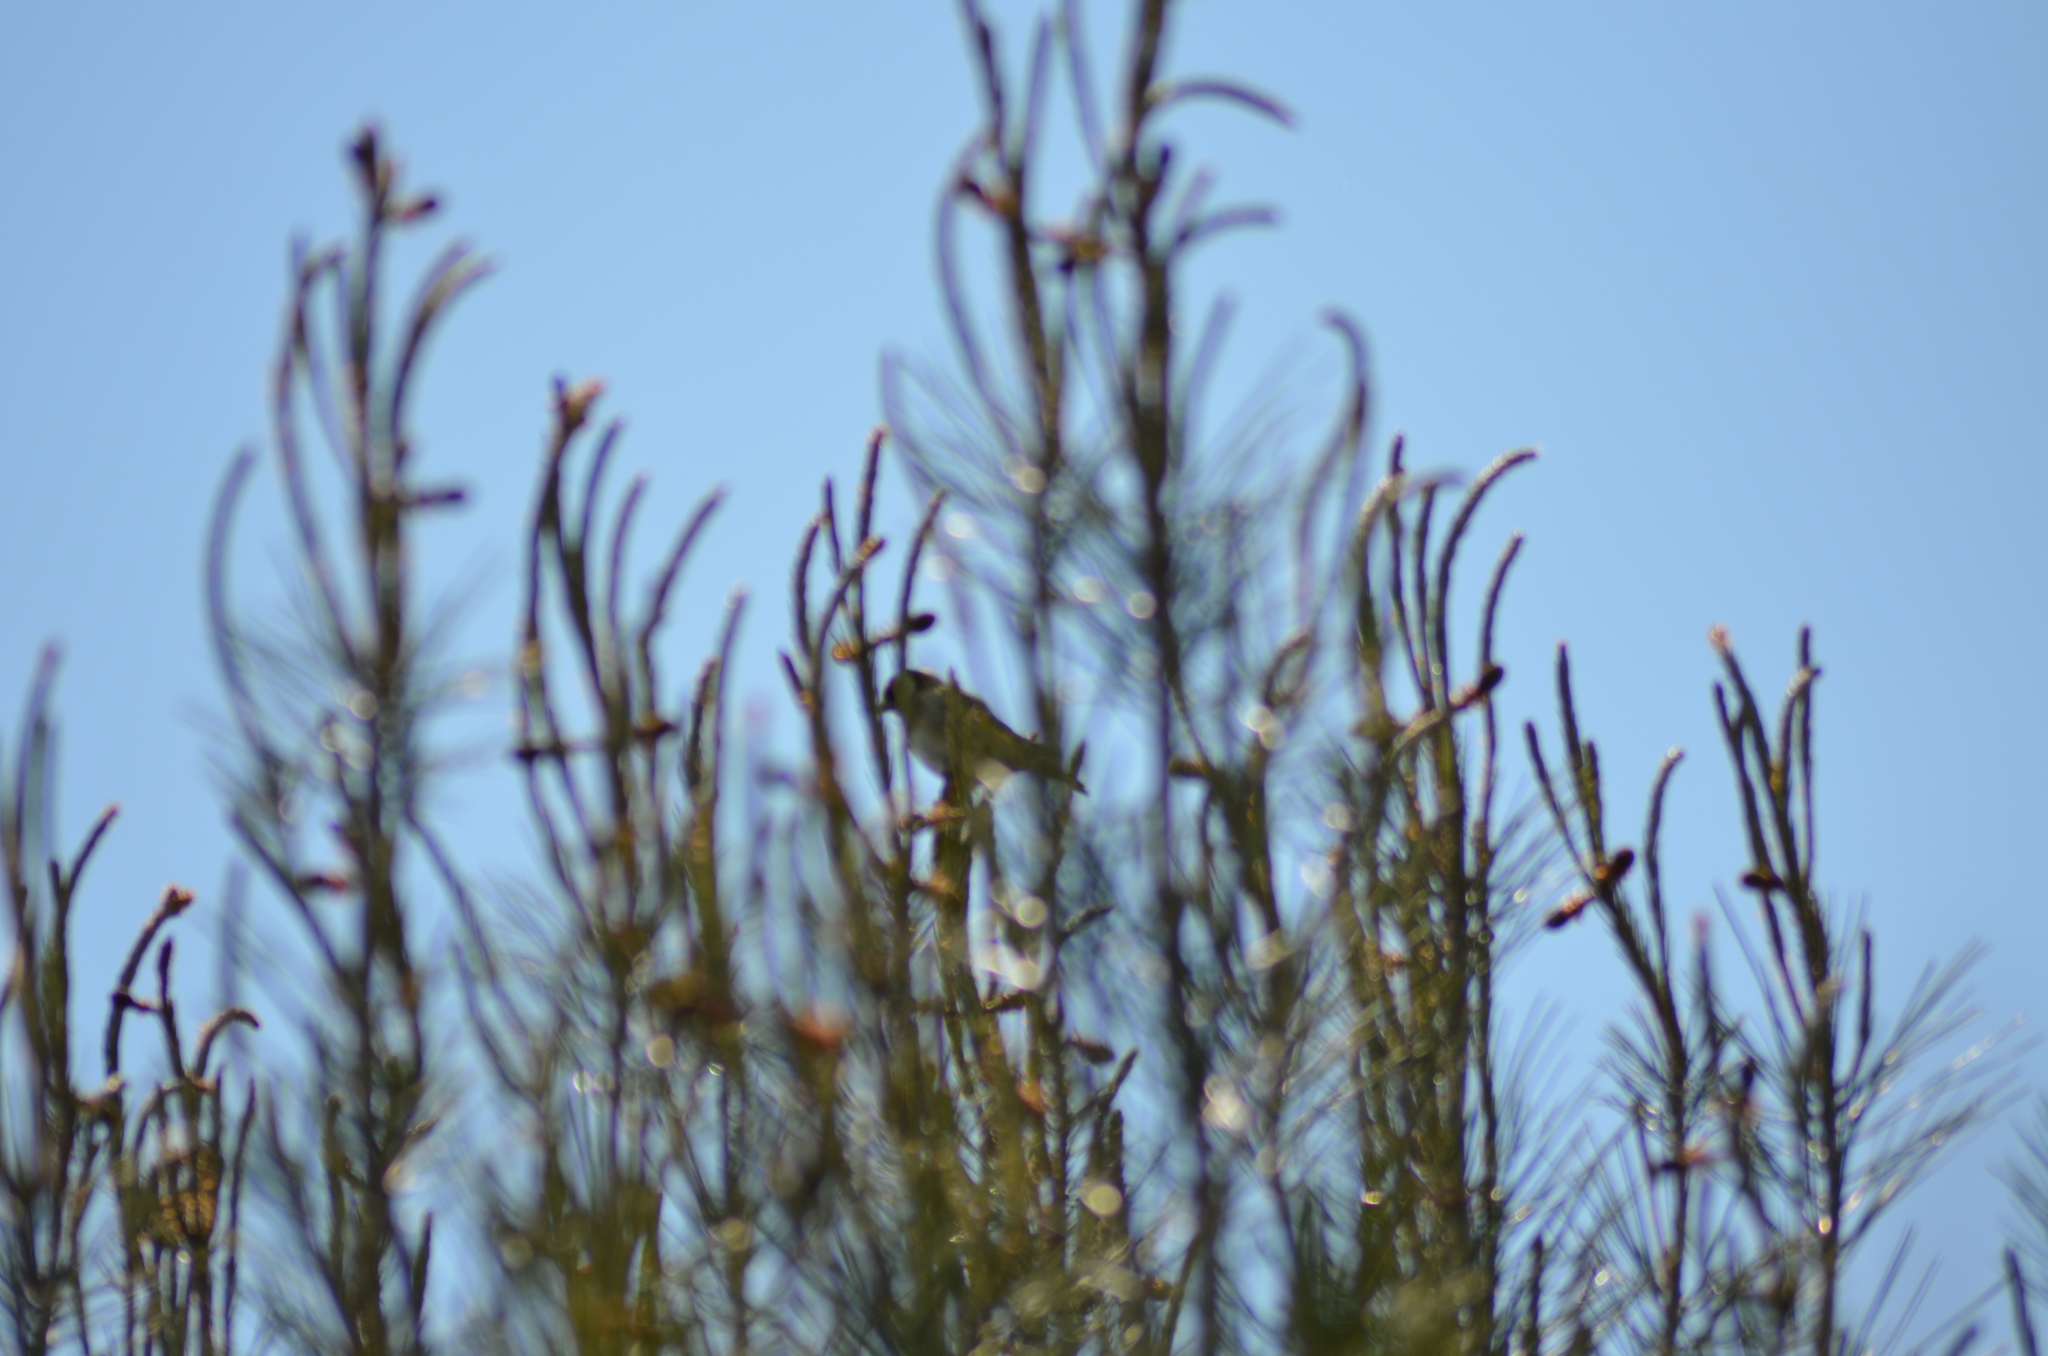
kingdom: Animalia
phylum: Chordata
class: Aves
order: Passeriformes
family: Fringillidae
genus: Carduelis
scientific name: Carduelis carduelis
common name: European goldfinch
